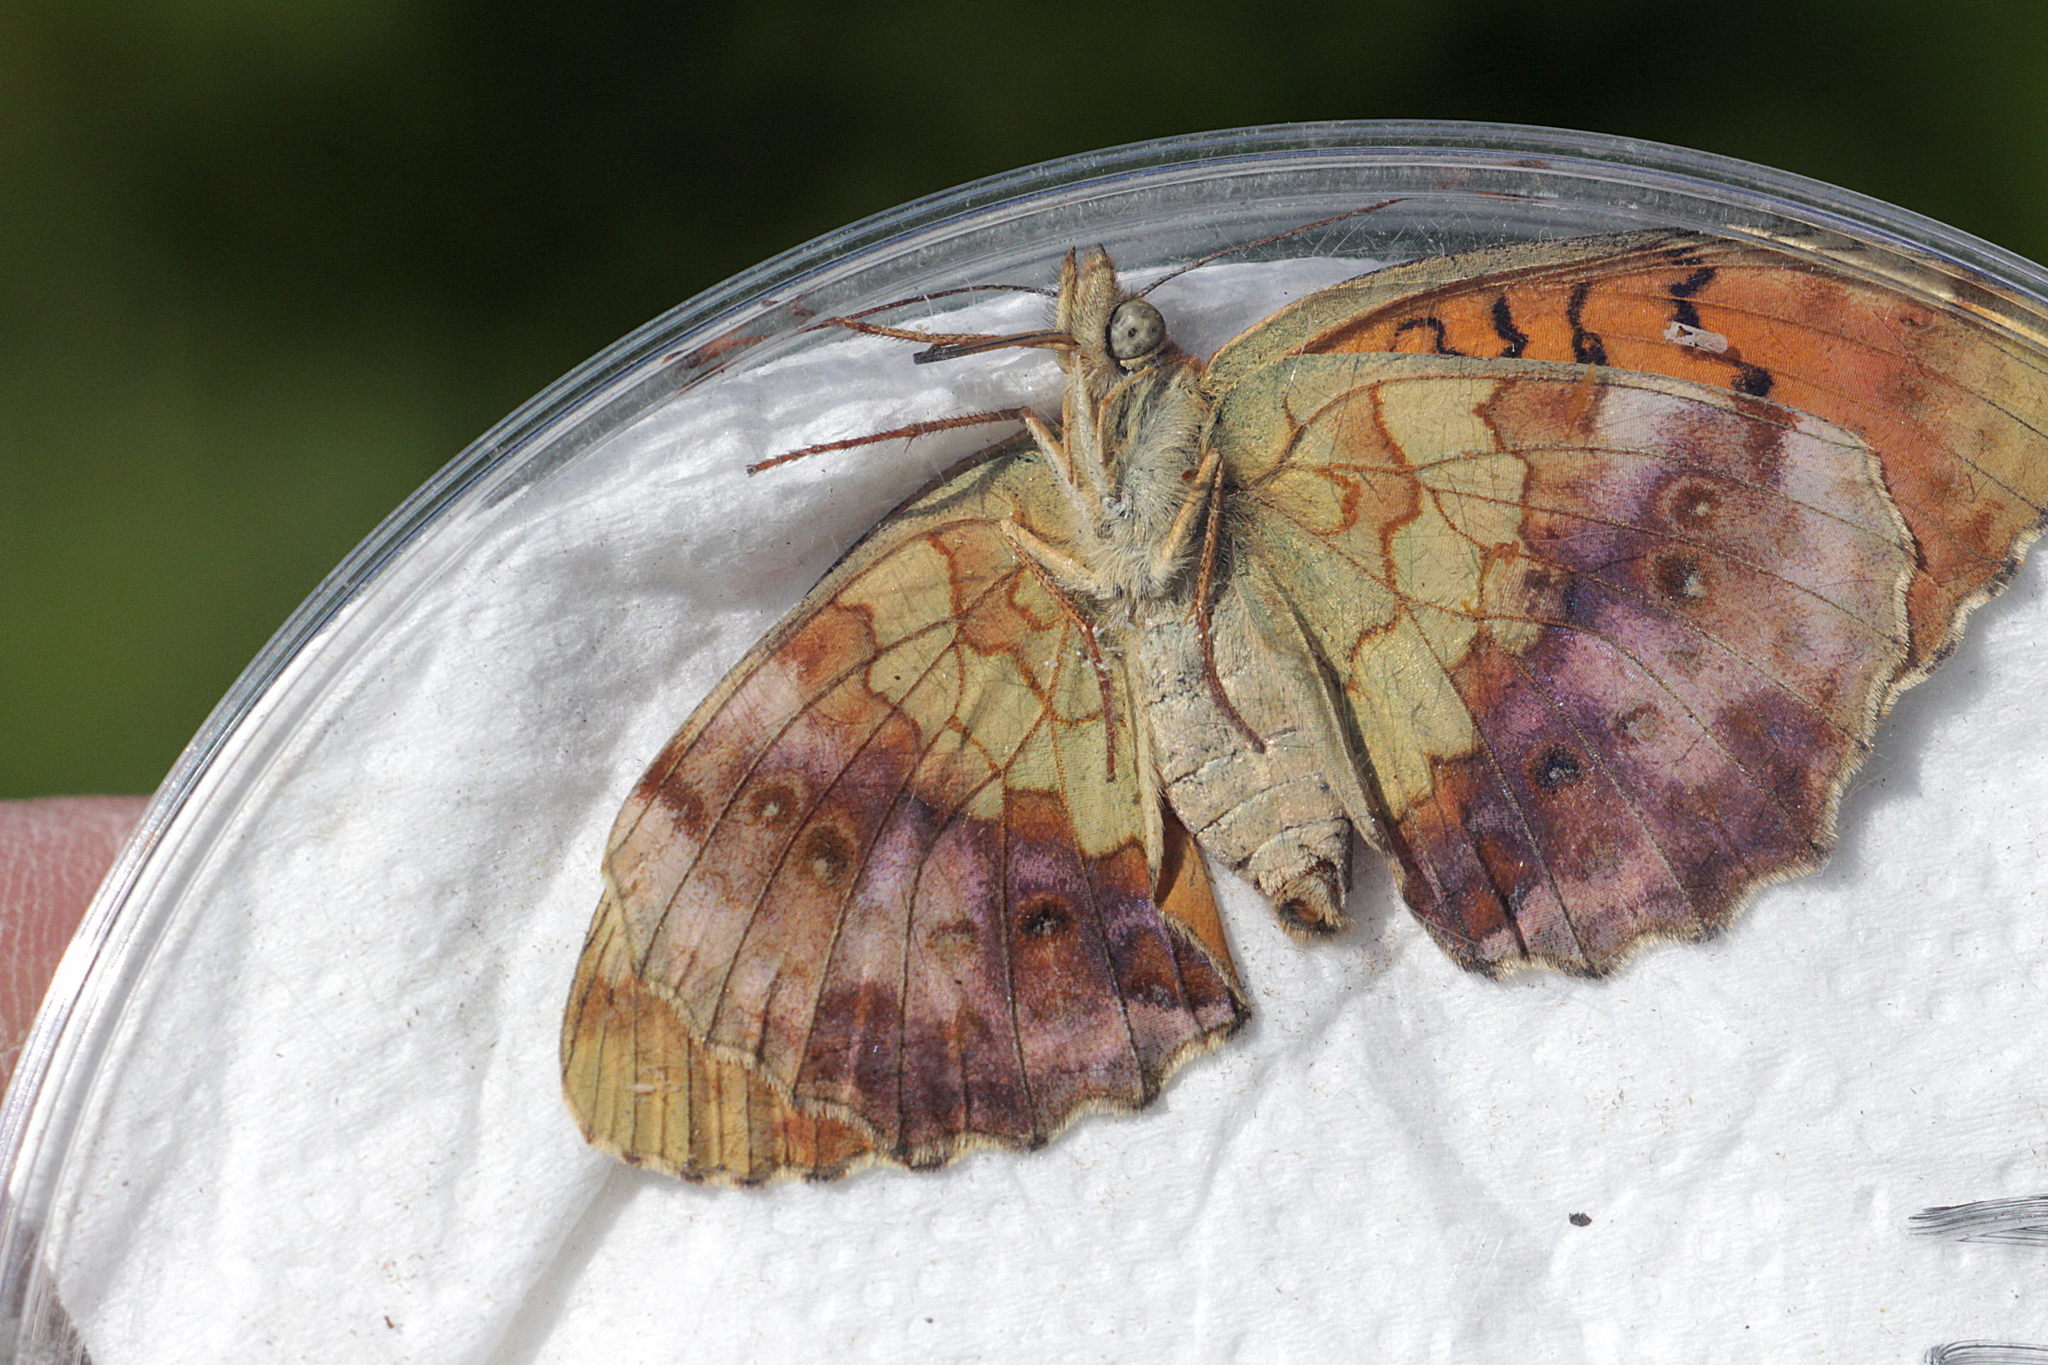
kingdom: Animalia
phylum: Arthropoda
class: Insecta
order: Lepidoptera
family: Nymphalidae
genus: Brenthis
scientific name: Brenthis daphne
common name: Marbled fritillary
